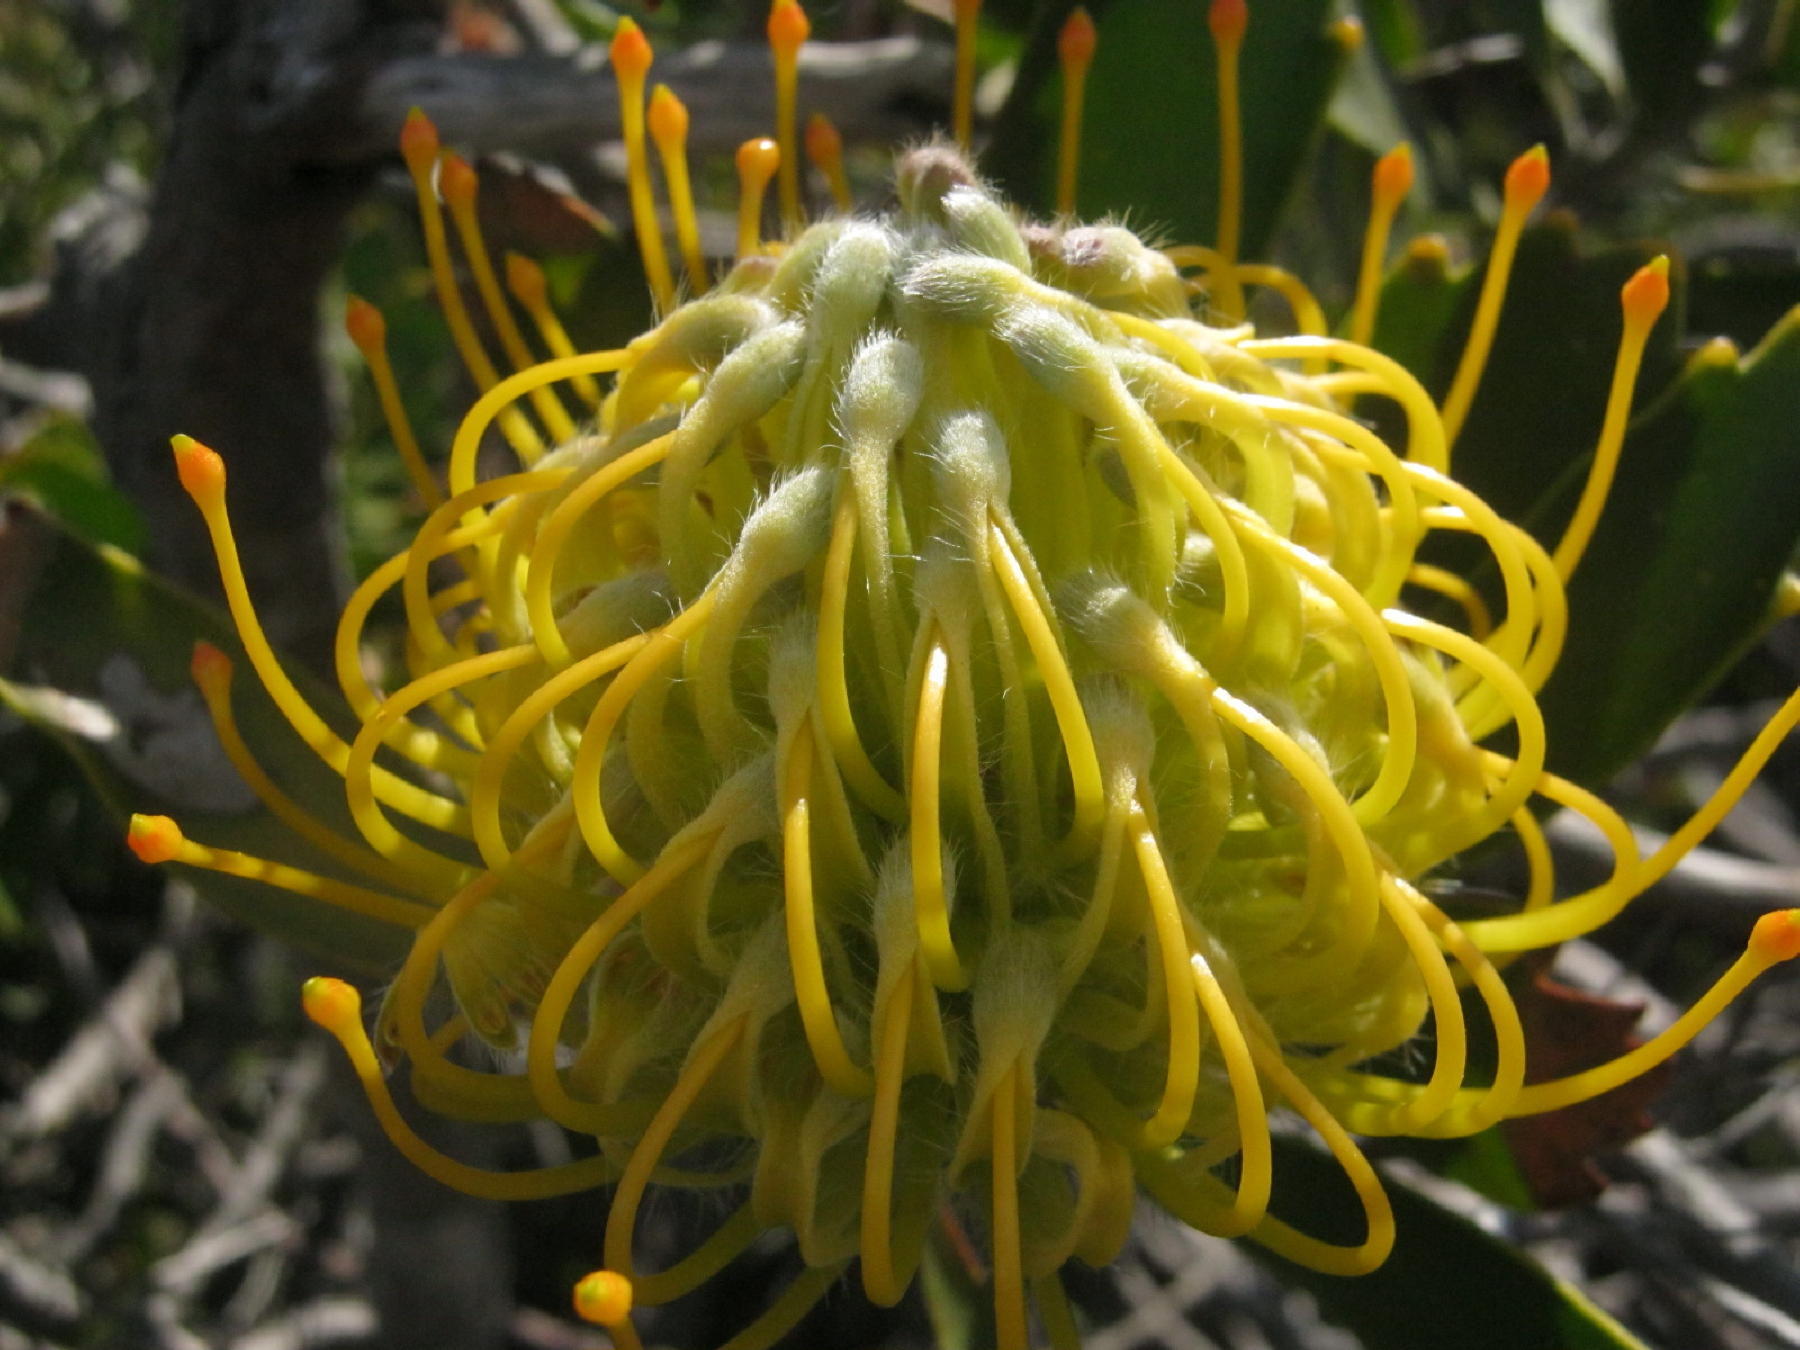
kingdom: Plantae
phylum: Tracheophyta
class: Magnoliopsida
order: Proteales
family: Proteaceae
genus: Leucospermum
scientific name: Leucospermum cuneiforme
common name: Common pincushion
